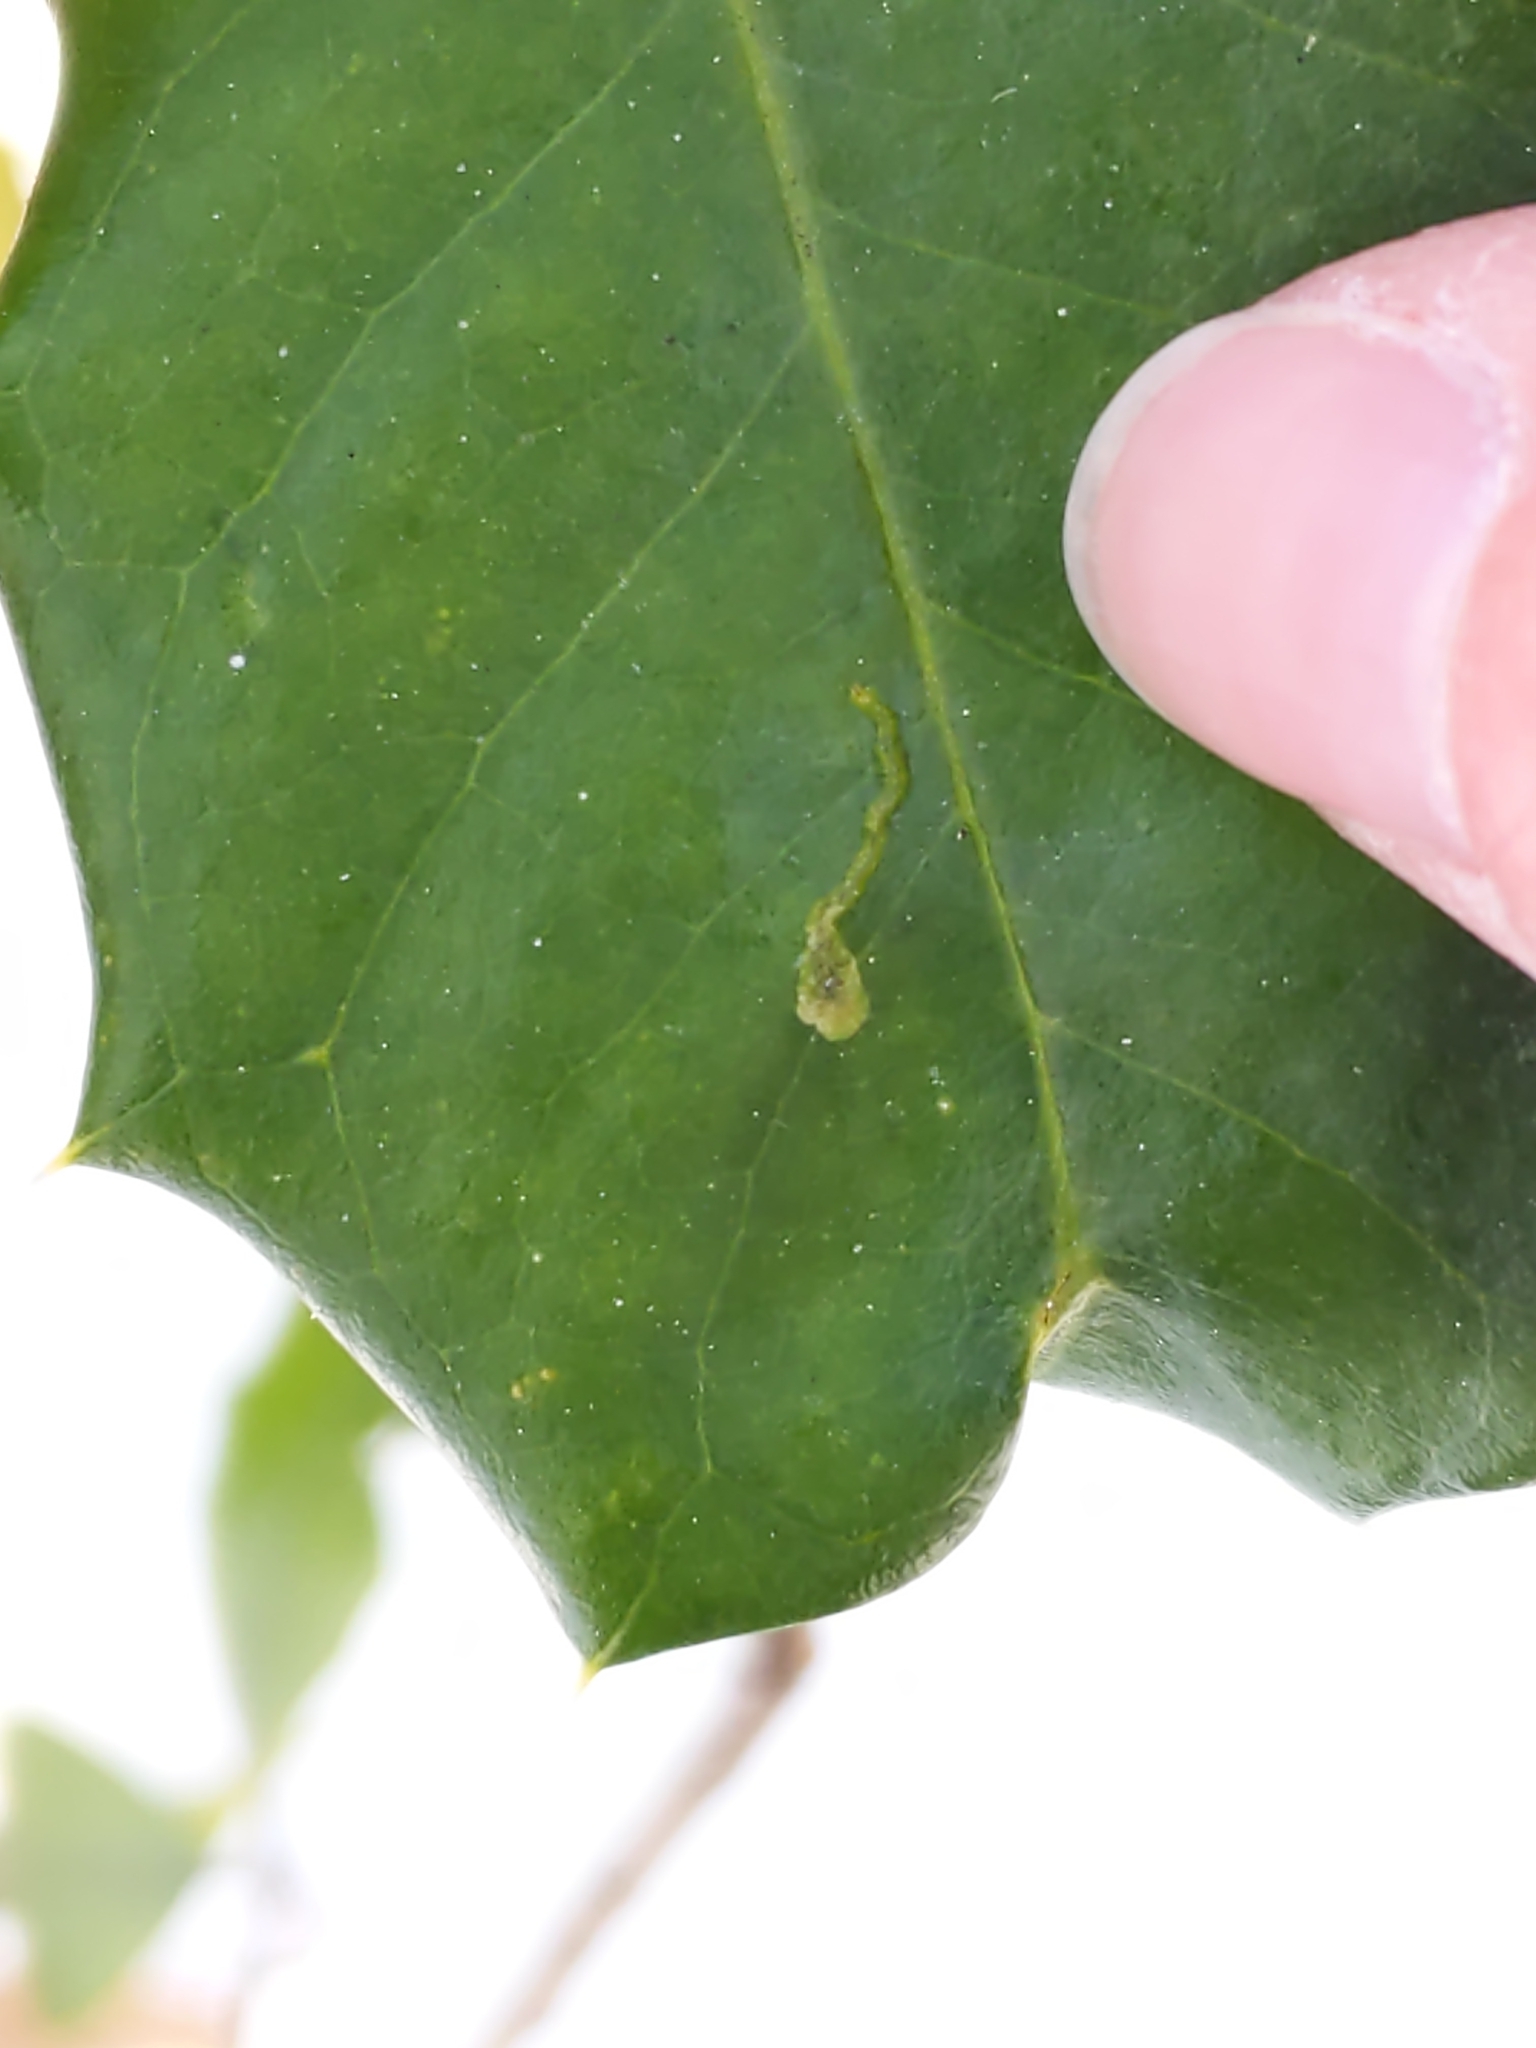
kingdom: Animalia
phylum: Arthropoda
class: Insecta
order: Diptera
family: Agromyzidae
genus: Phytomyza
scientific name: Phytomyza ilicicola
